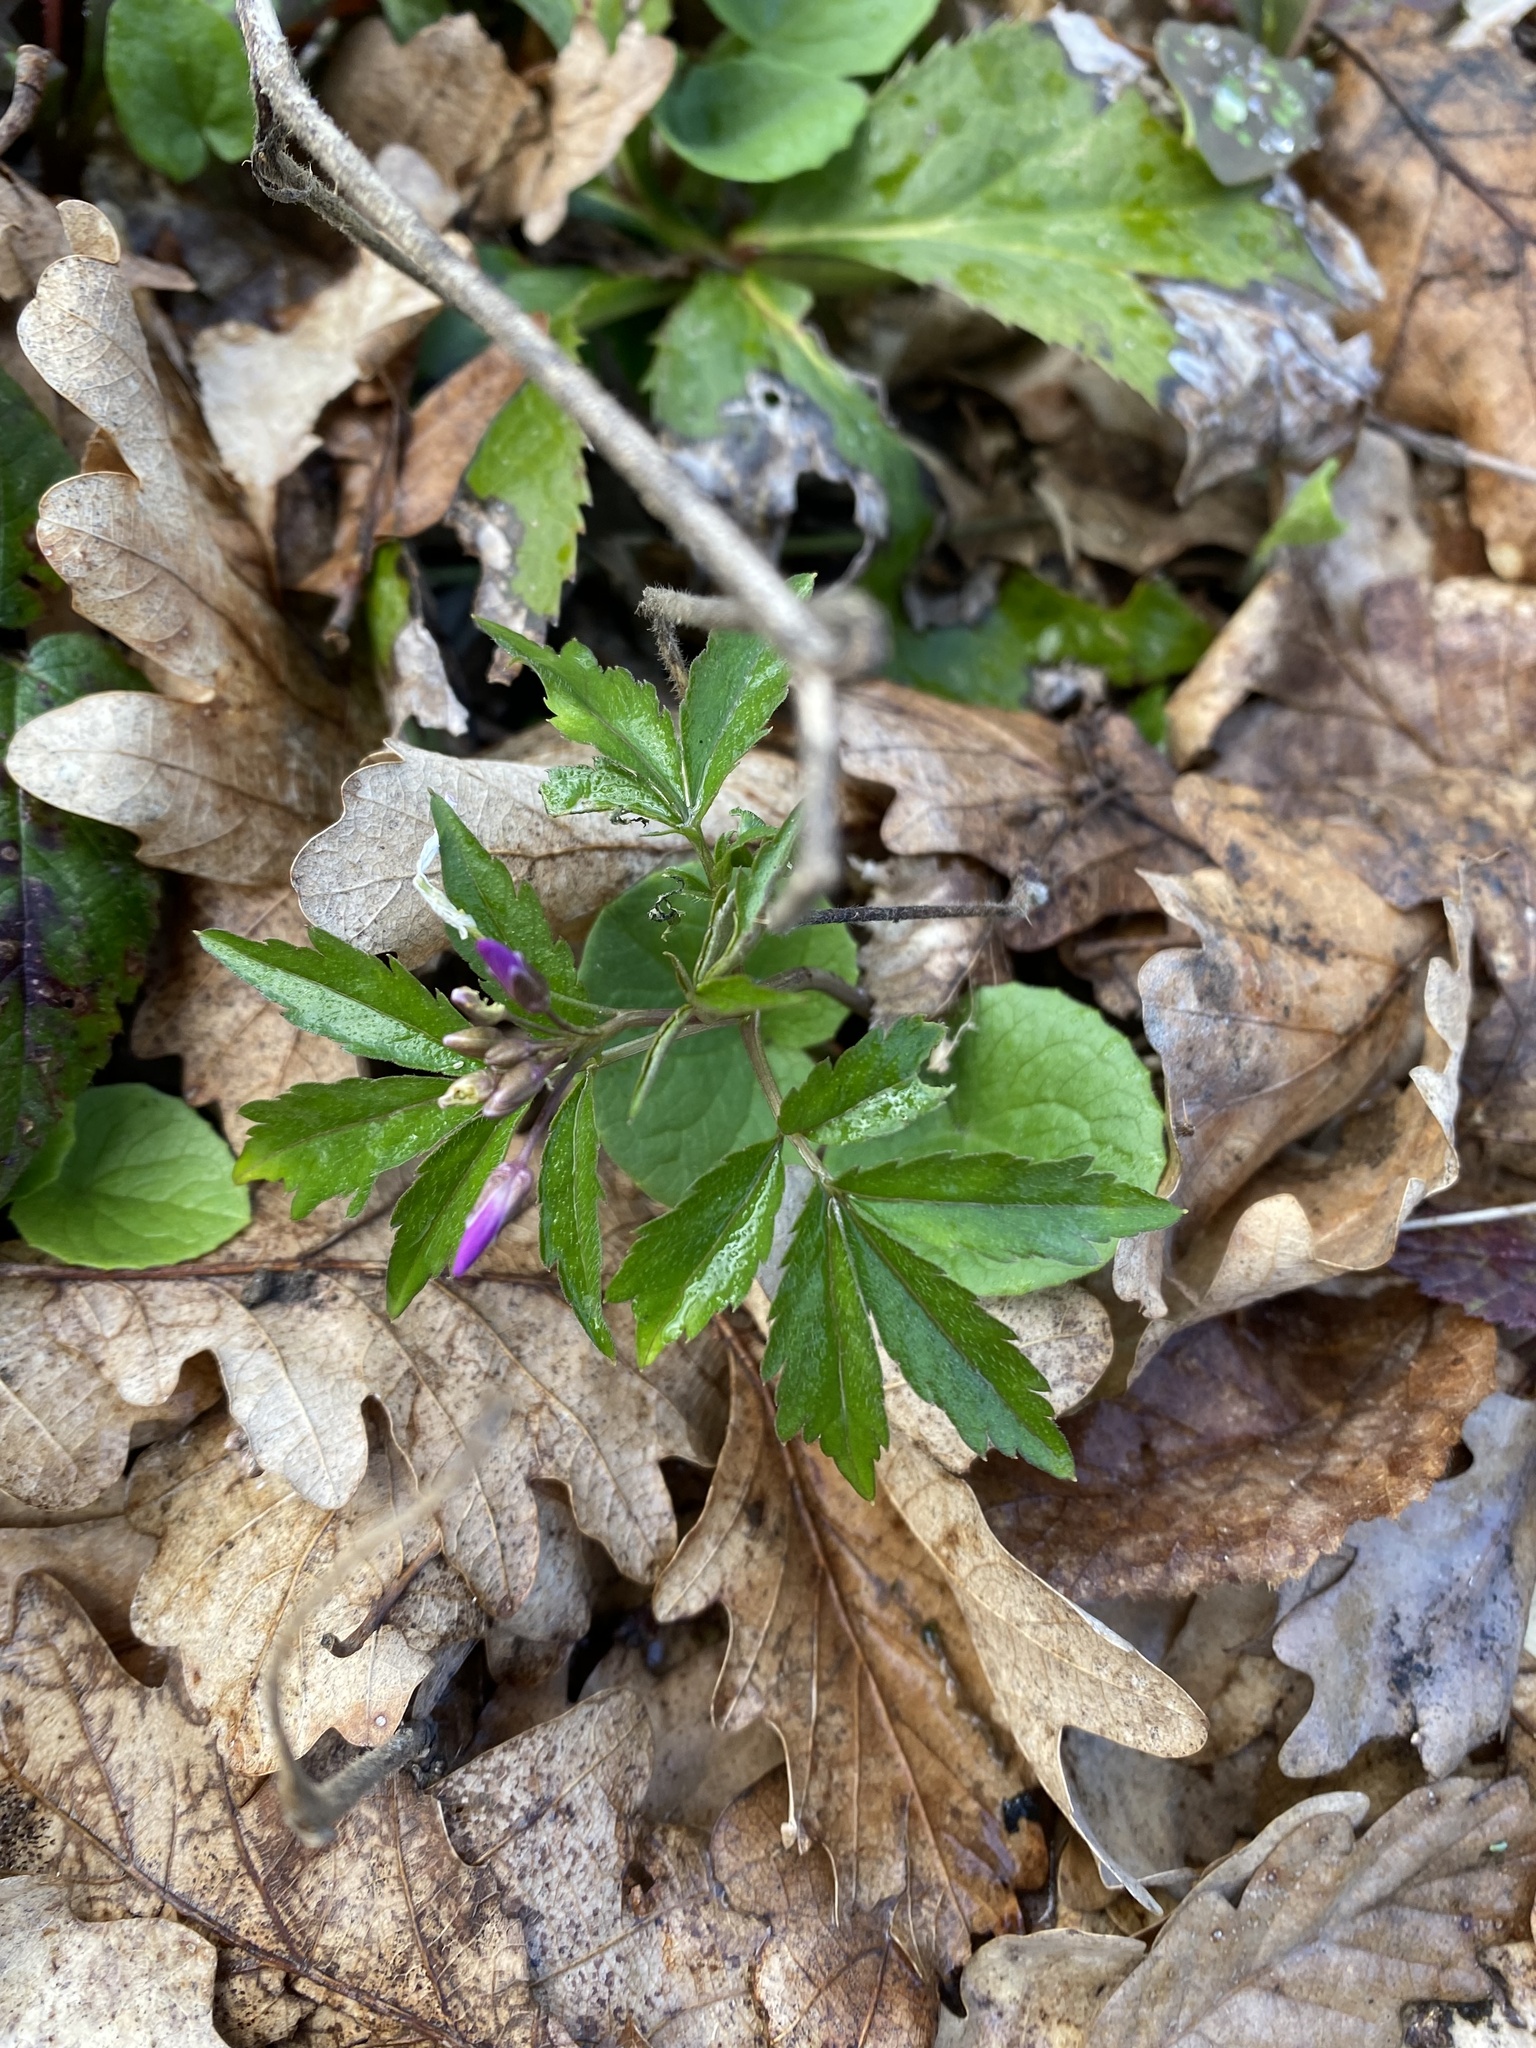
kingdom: Plantae
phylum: Tracheophyta
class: Magnoliopsida
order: Brassicales
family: Brassicaceae
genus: Cardamine
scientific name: Cardamine quinquefolia
